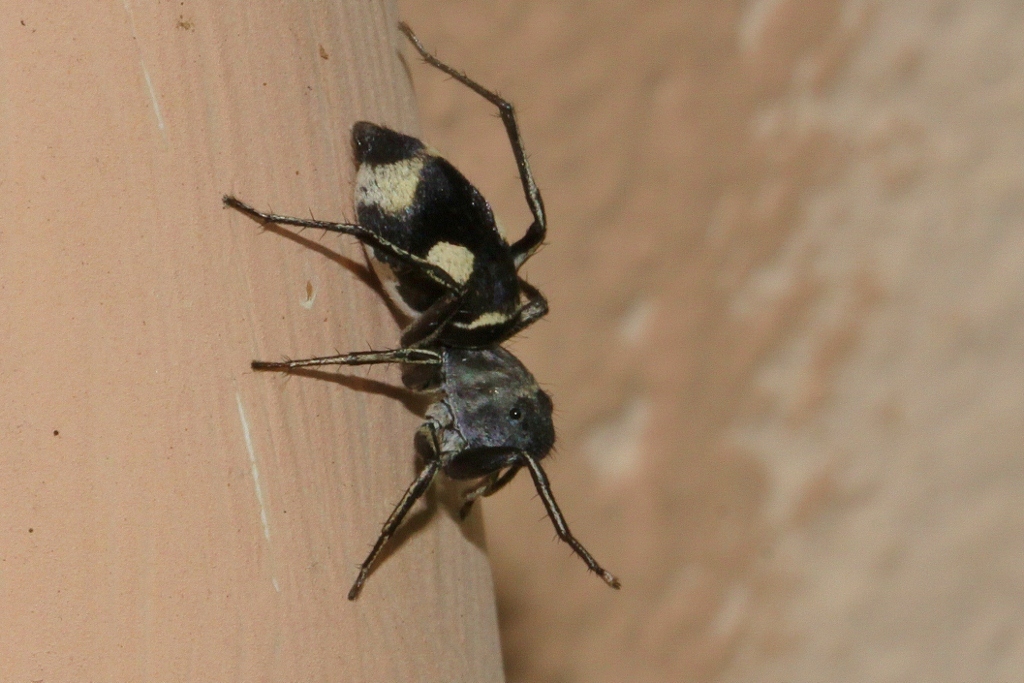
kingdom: Animalia
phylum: Arthropoda
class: Arachnida
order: Araneae
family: Salticidae
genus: Mexcala
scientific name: Mexcala quadrimaculata
